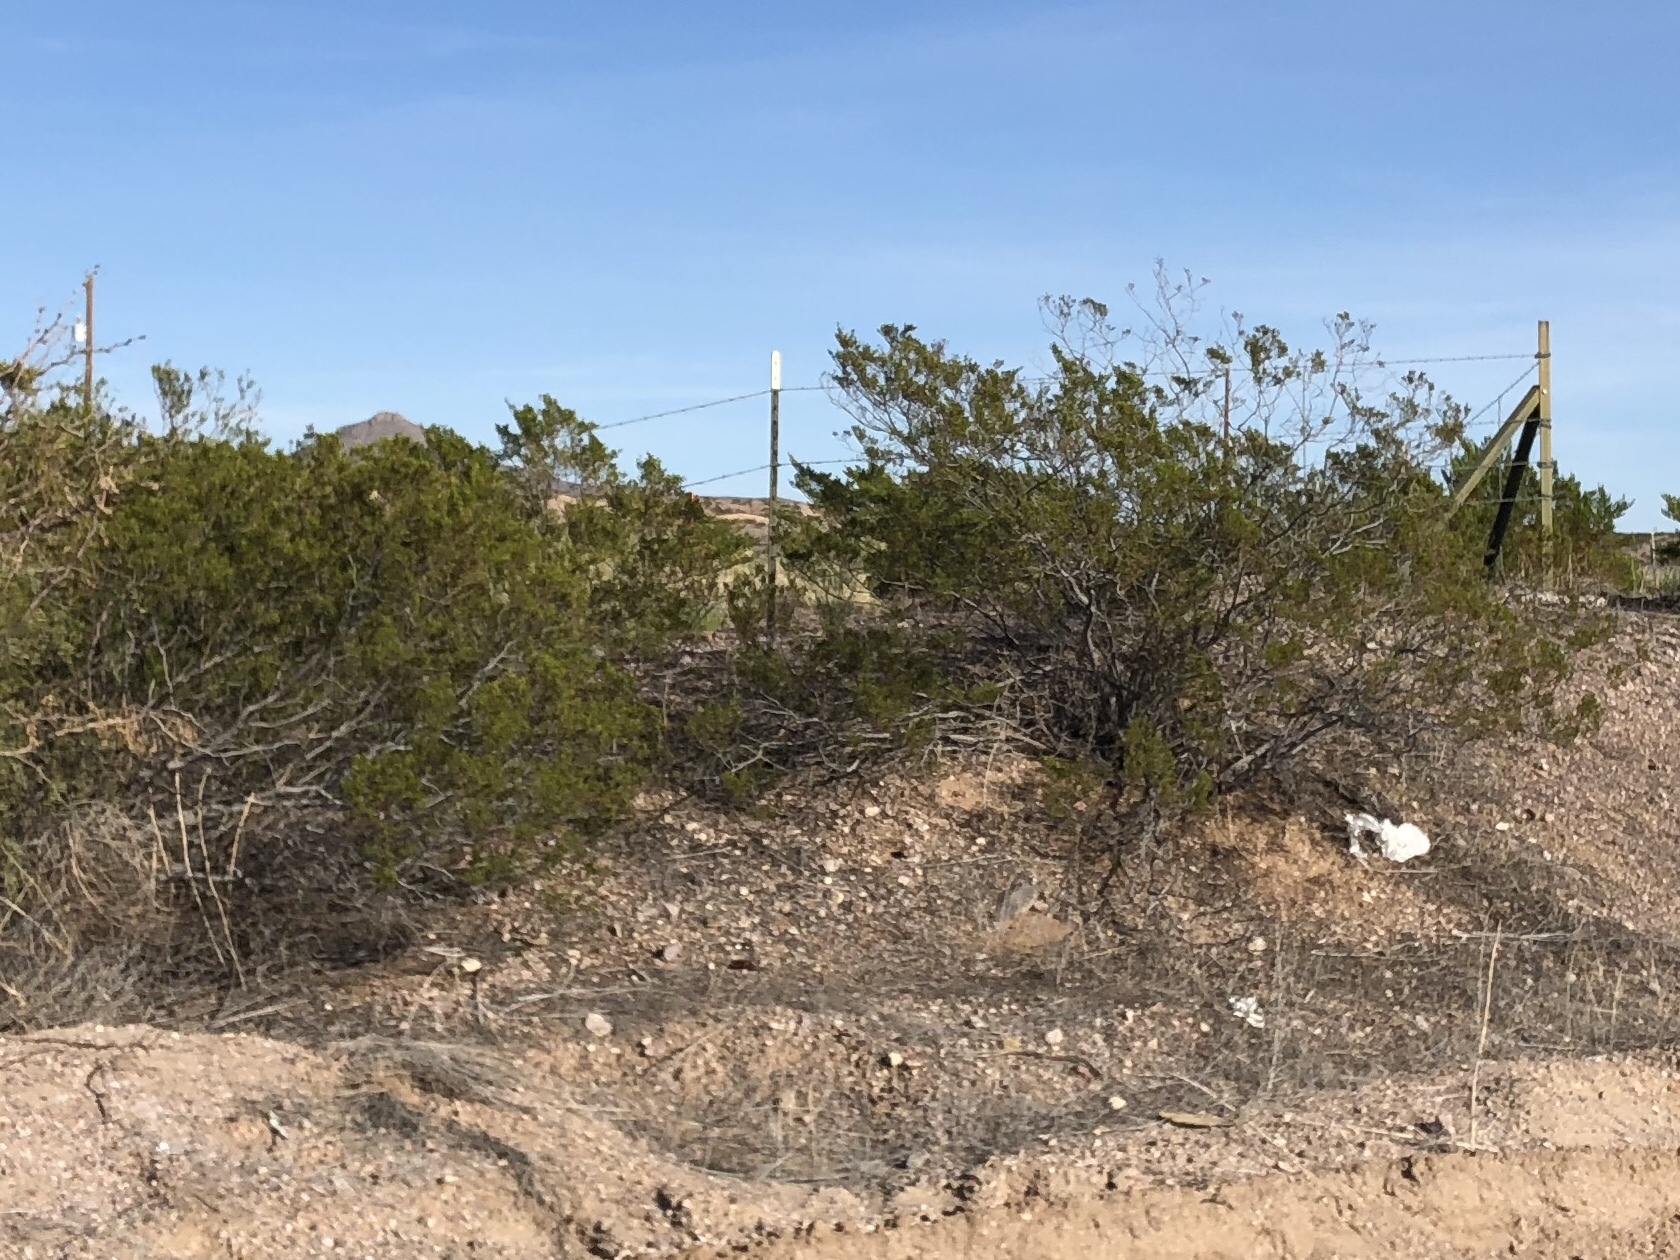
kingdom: Plantae
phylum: Tracheophyta
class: Magnoliopsida
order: Zygophyllales
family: Zygophyllaceae
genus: Larrea
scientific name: Larrea tridentata
